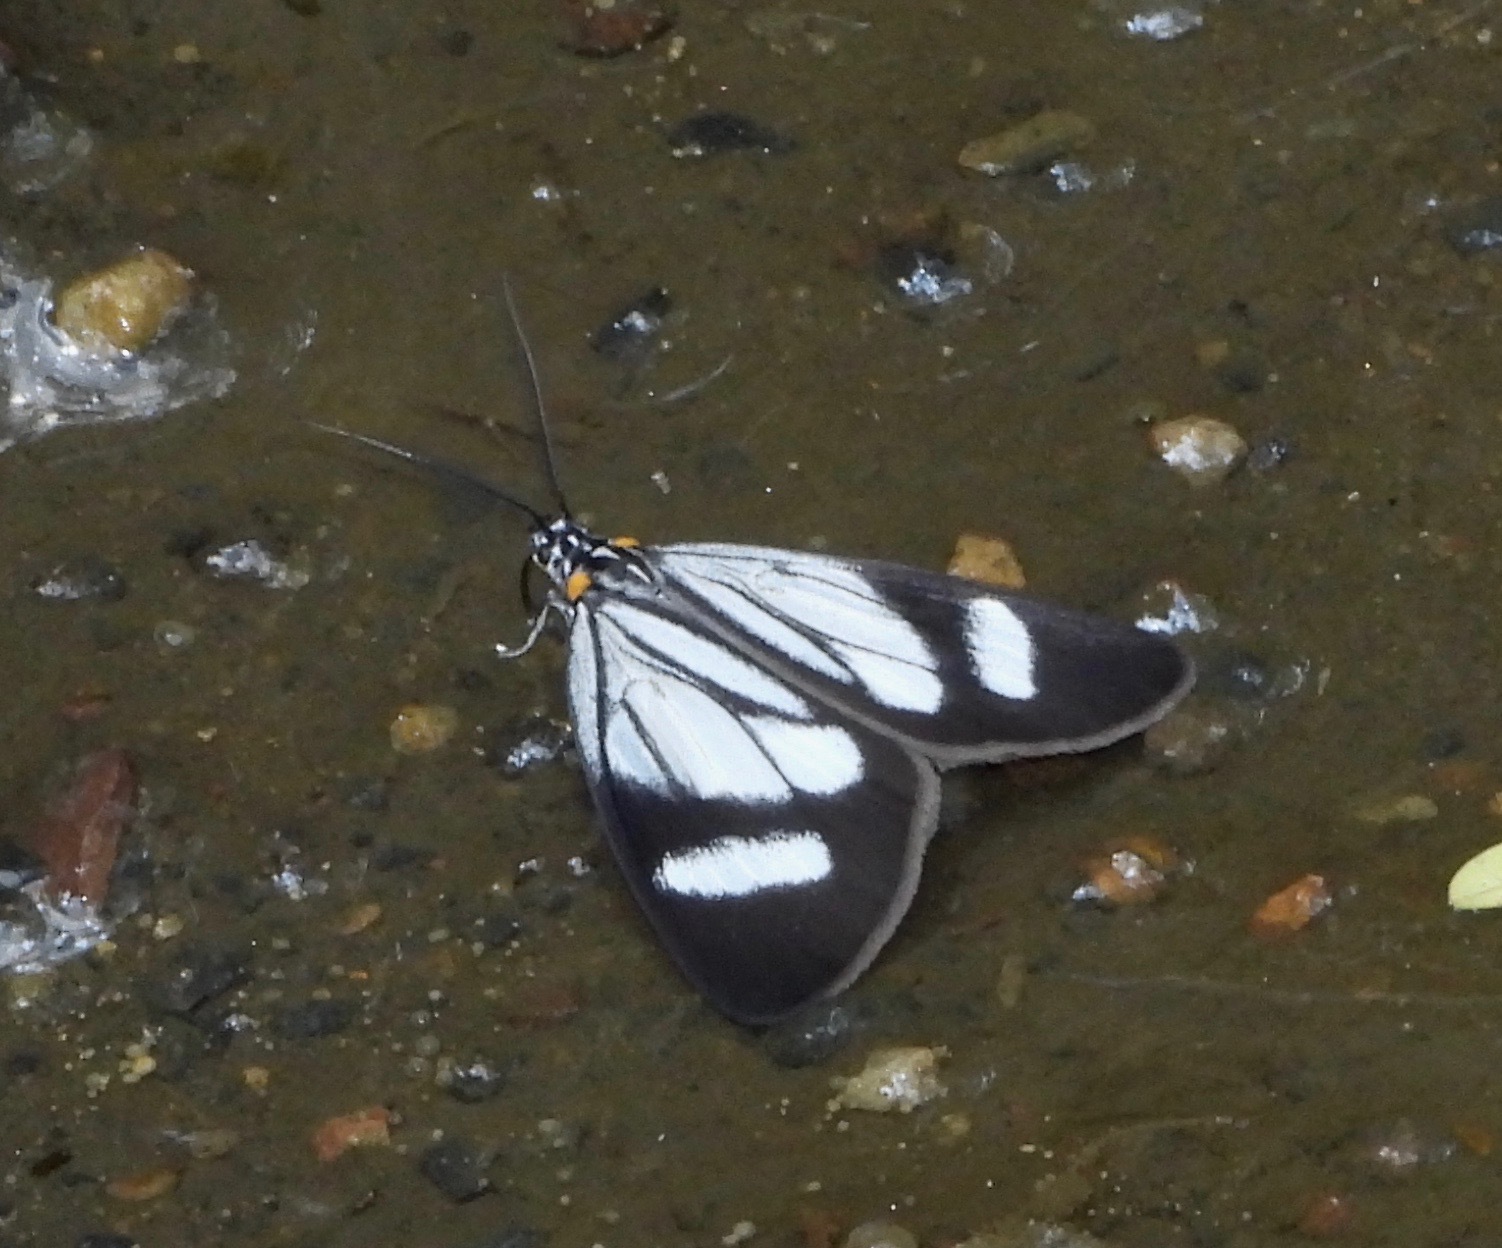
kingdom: Animalia
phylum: Arthropoda
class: Insecta
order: Lepidoptera
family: Notodontidae
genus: Euchontha
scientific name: Euchontha frigida
